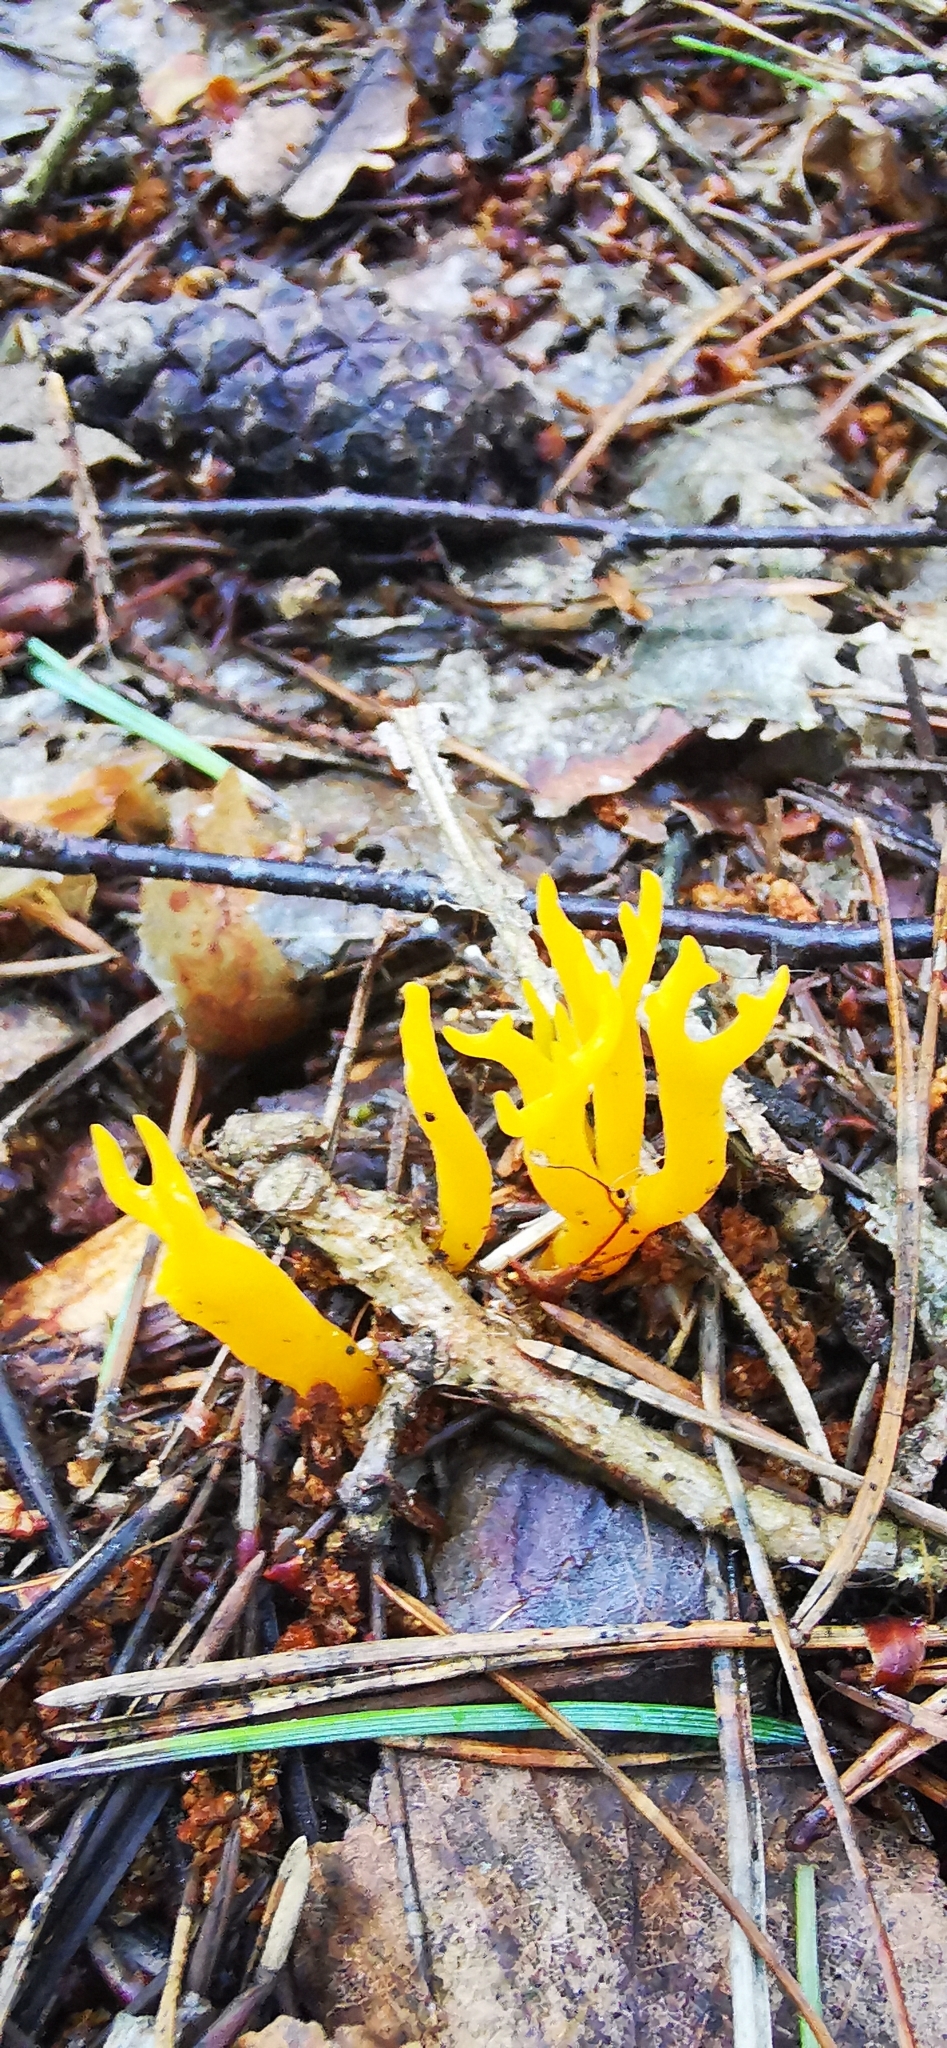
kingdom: Fungi
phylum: Basidiomycota
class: Dacrymycetes
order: Dacrymycetales
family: Dacrymycetaceae
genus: Calocera
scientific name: Calocera viscosa
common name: Yellow stagshorn
